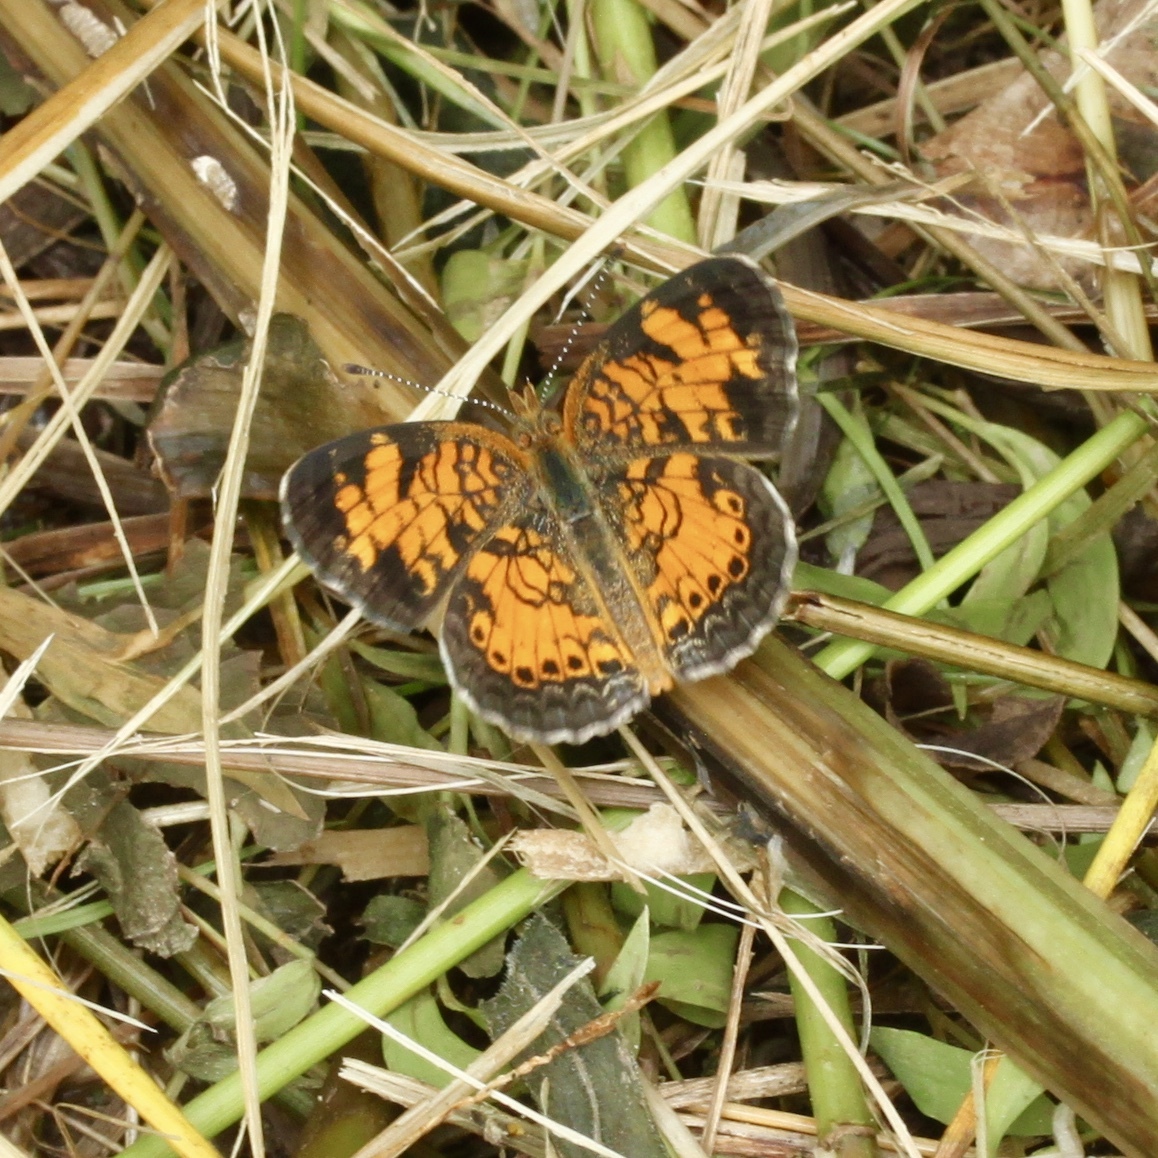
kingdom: Animalia
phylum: Arthropoda
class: Insecta
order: Lepidoptera
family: Nymphalidae
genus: Phyciodes
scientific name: Phyciodes tharos
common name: Pearl crescent
